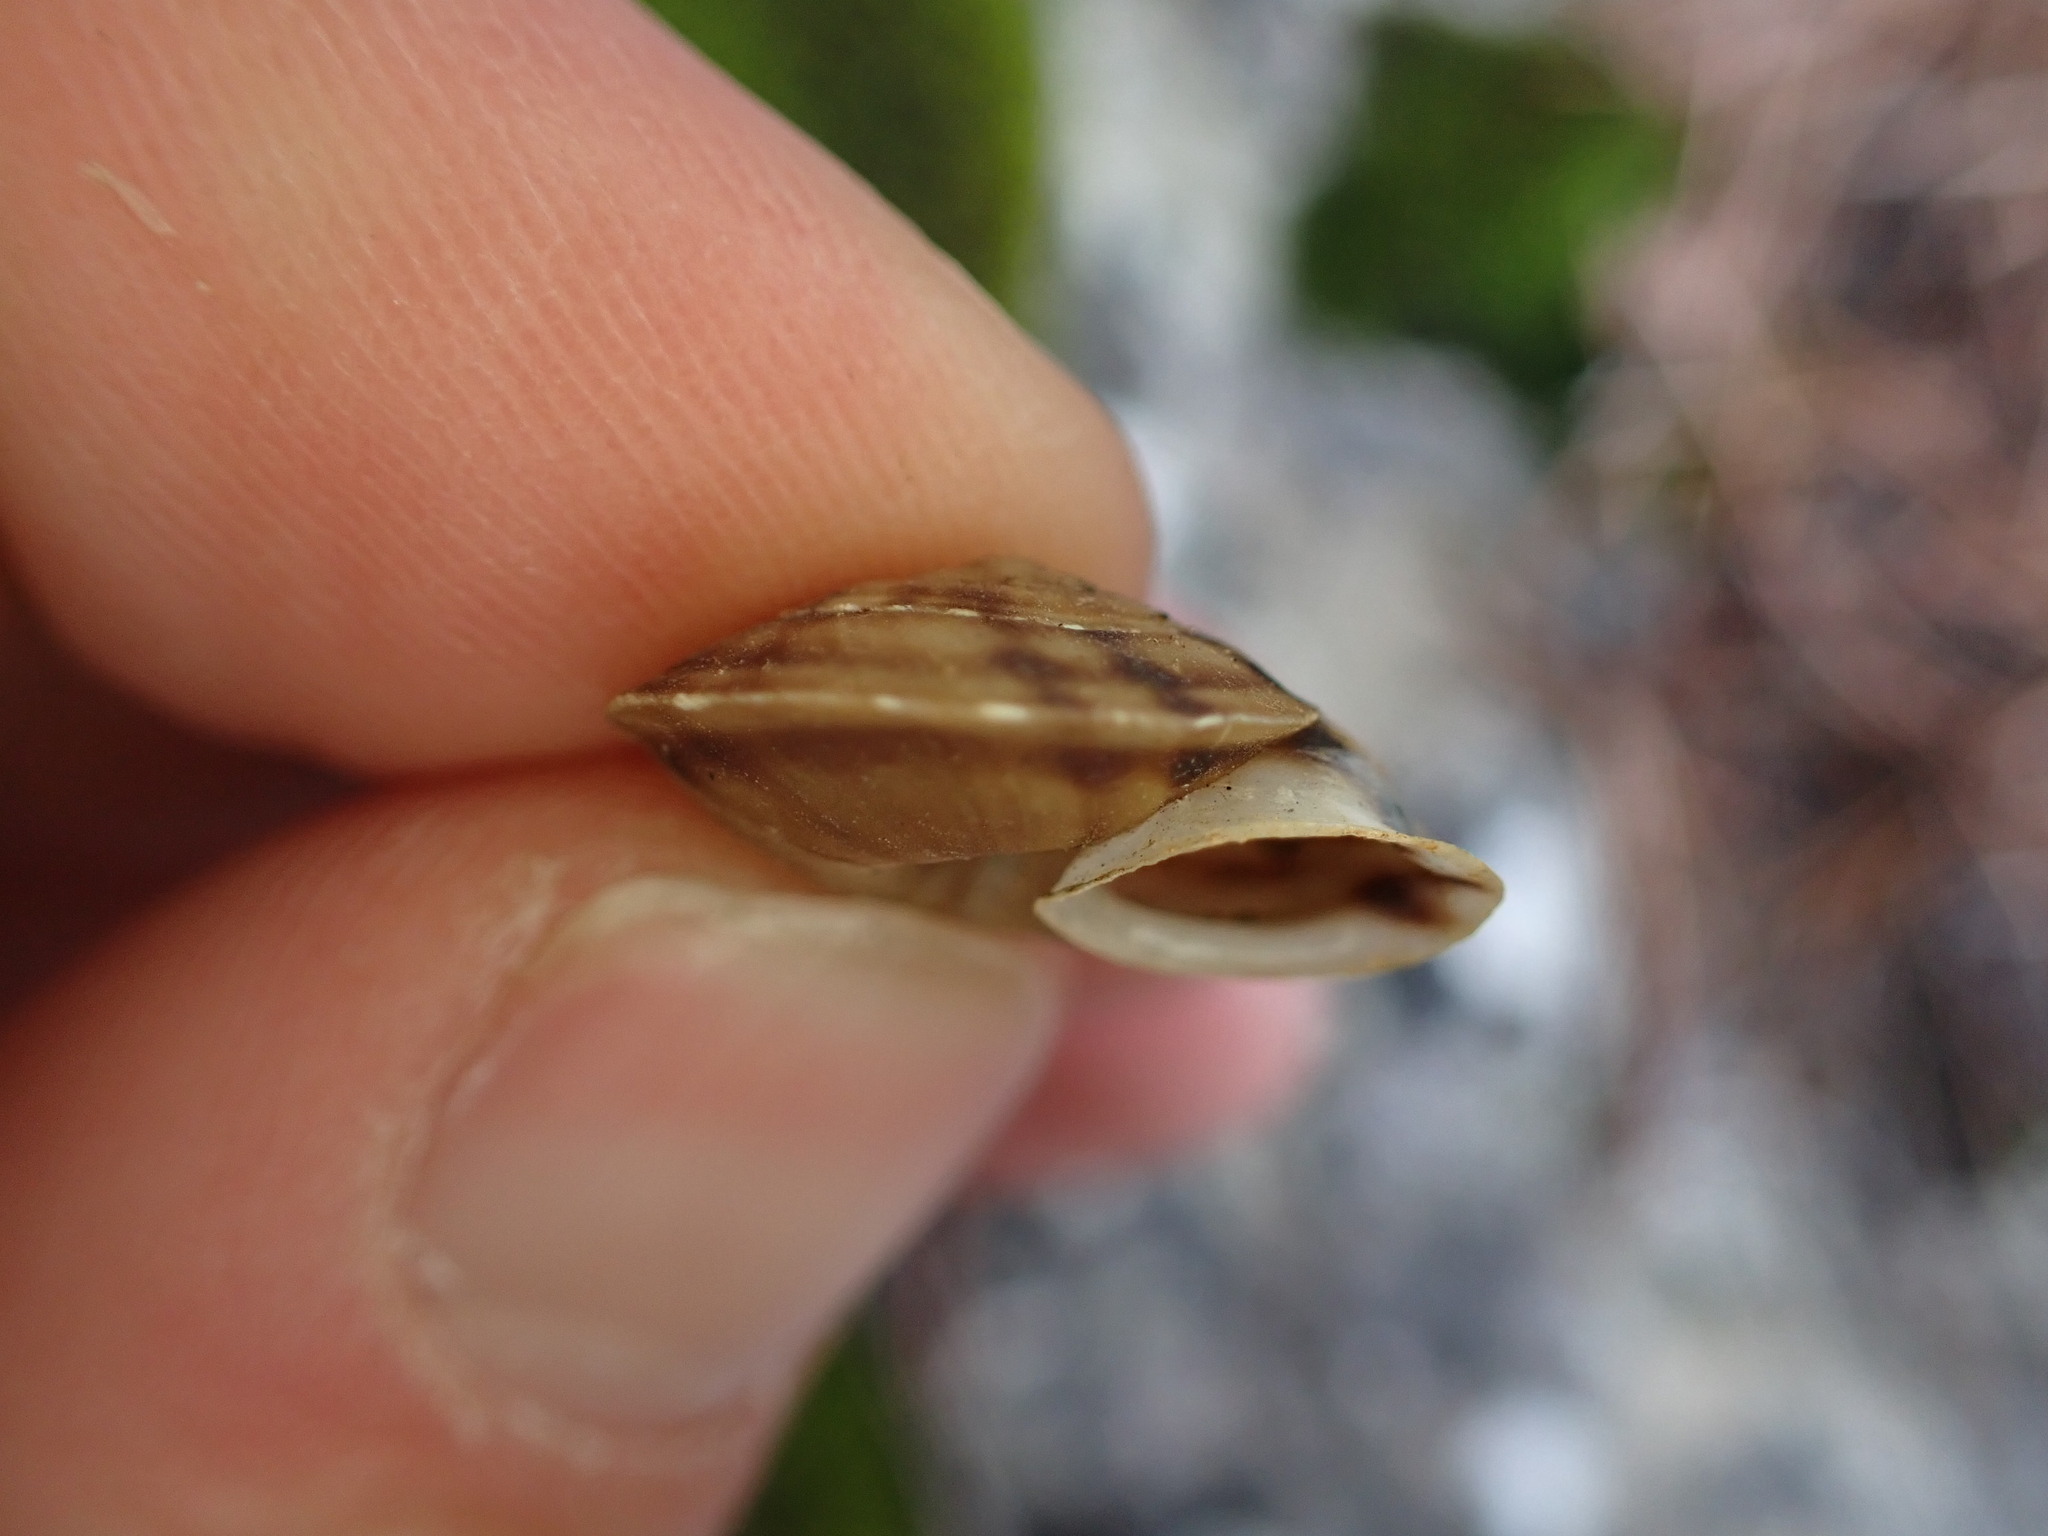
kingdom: Animalia
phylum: Mollusca
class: Gastropoda
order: Stylommatophora
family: Helicidae
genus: Helicigona
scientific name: Helicigona lapicida
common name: Lapidary snail
